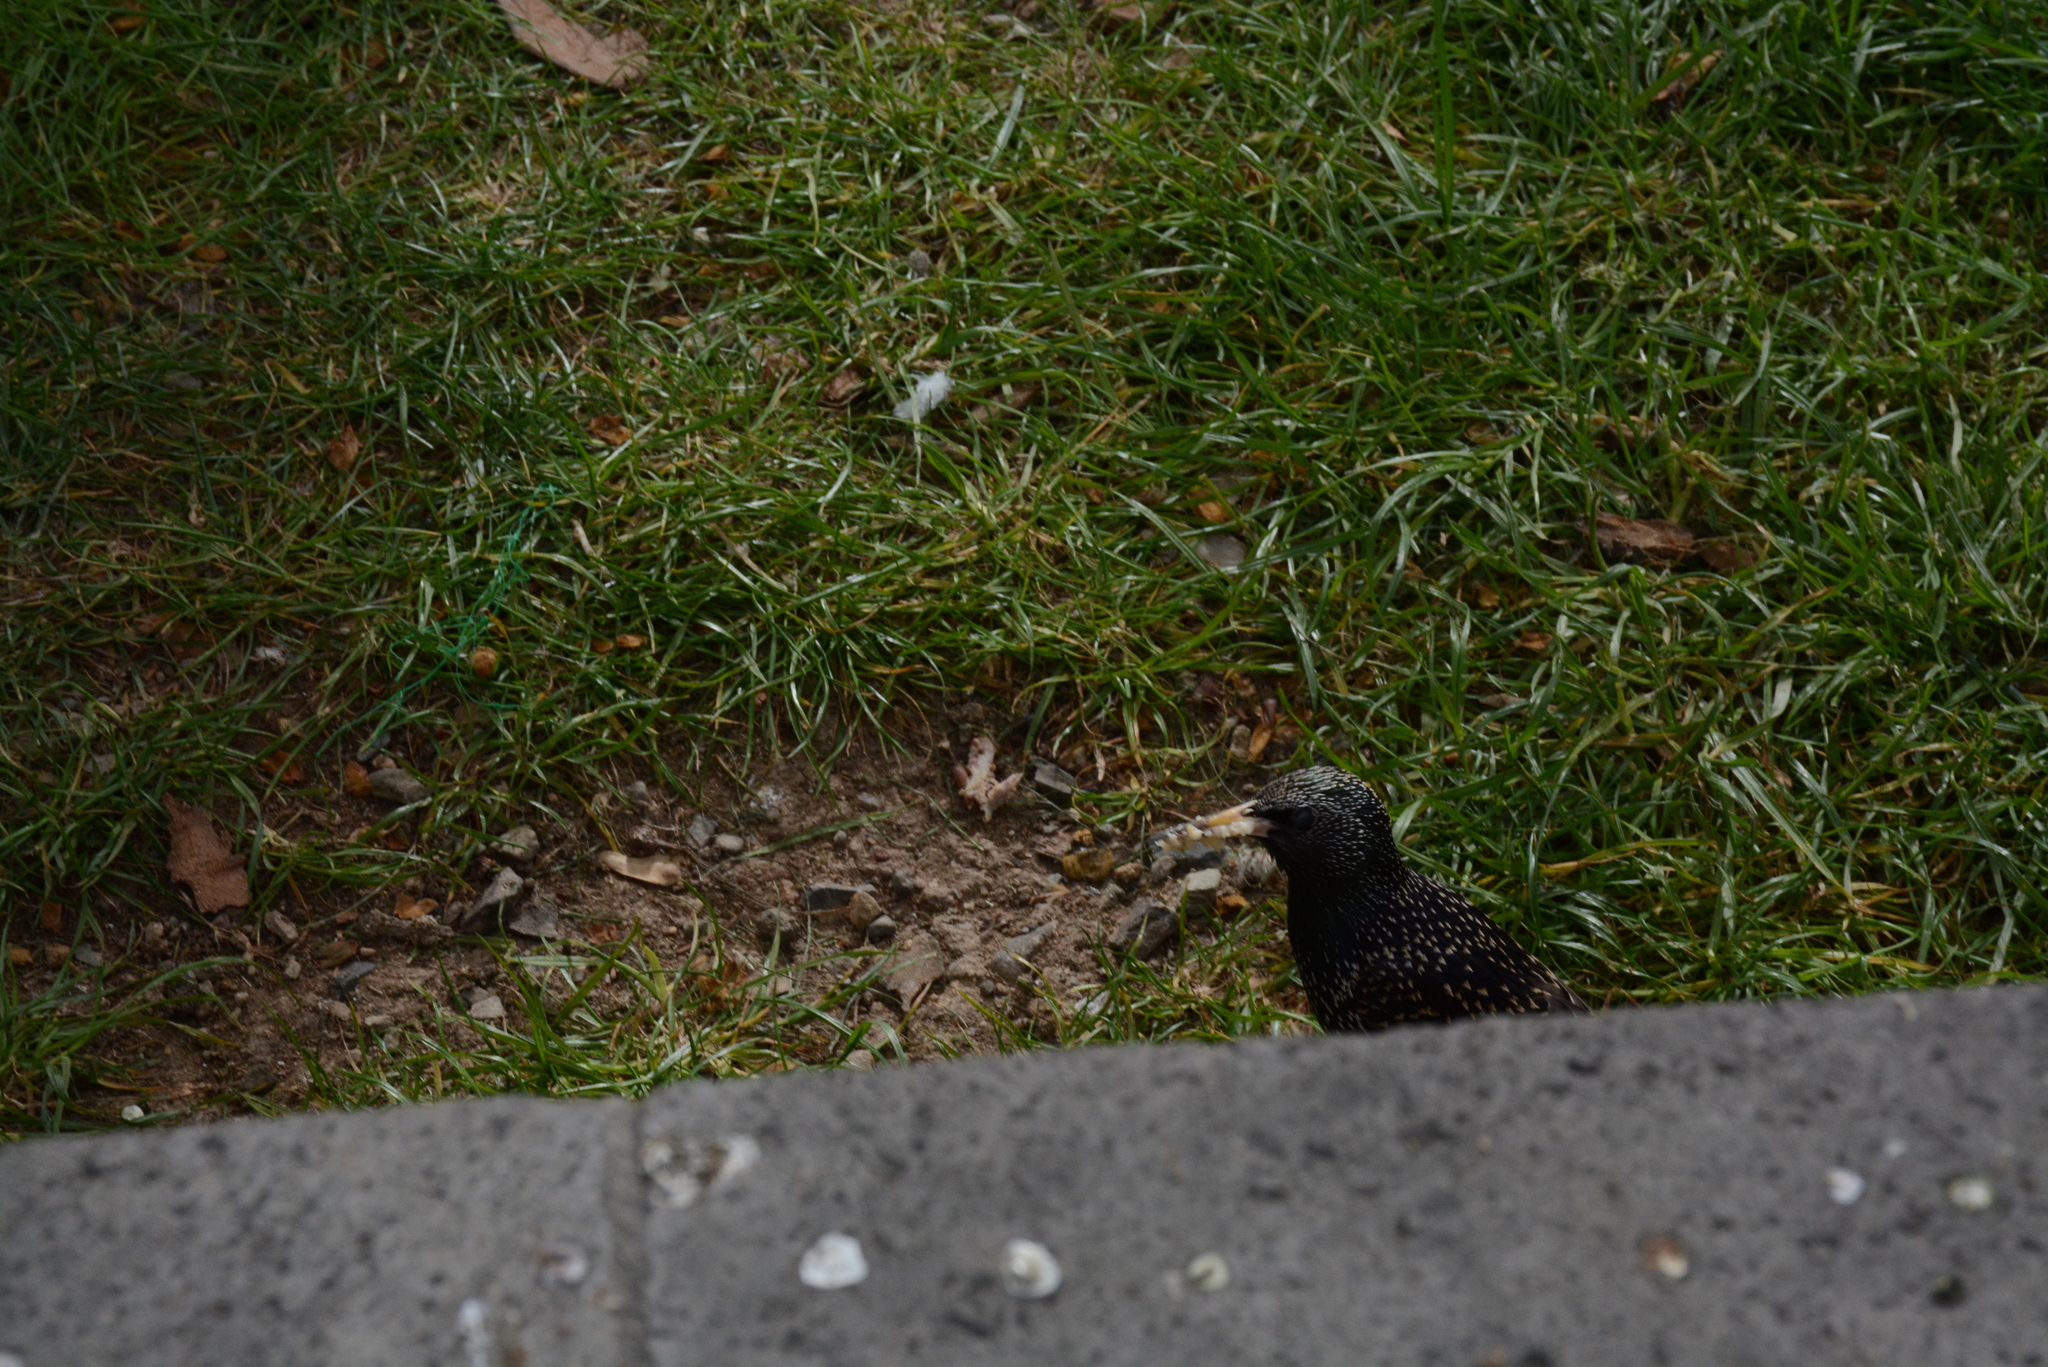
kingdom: Animalia
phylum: Chordata
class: Aves
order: Passeriformes
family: Sturnidae
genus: Sturnus
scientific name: Sturnus vulgaris
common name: Common starling
